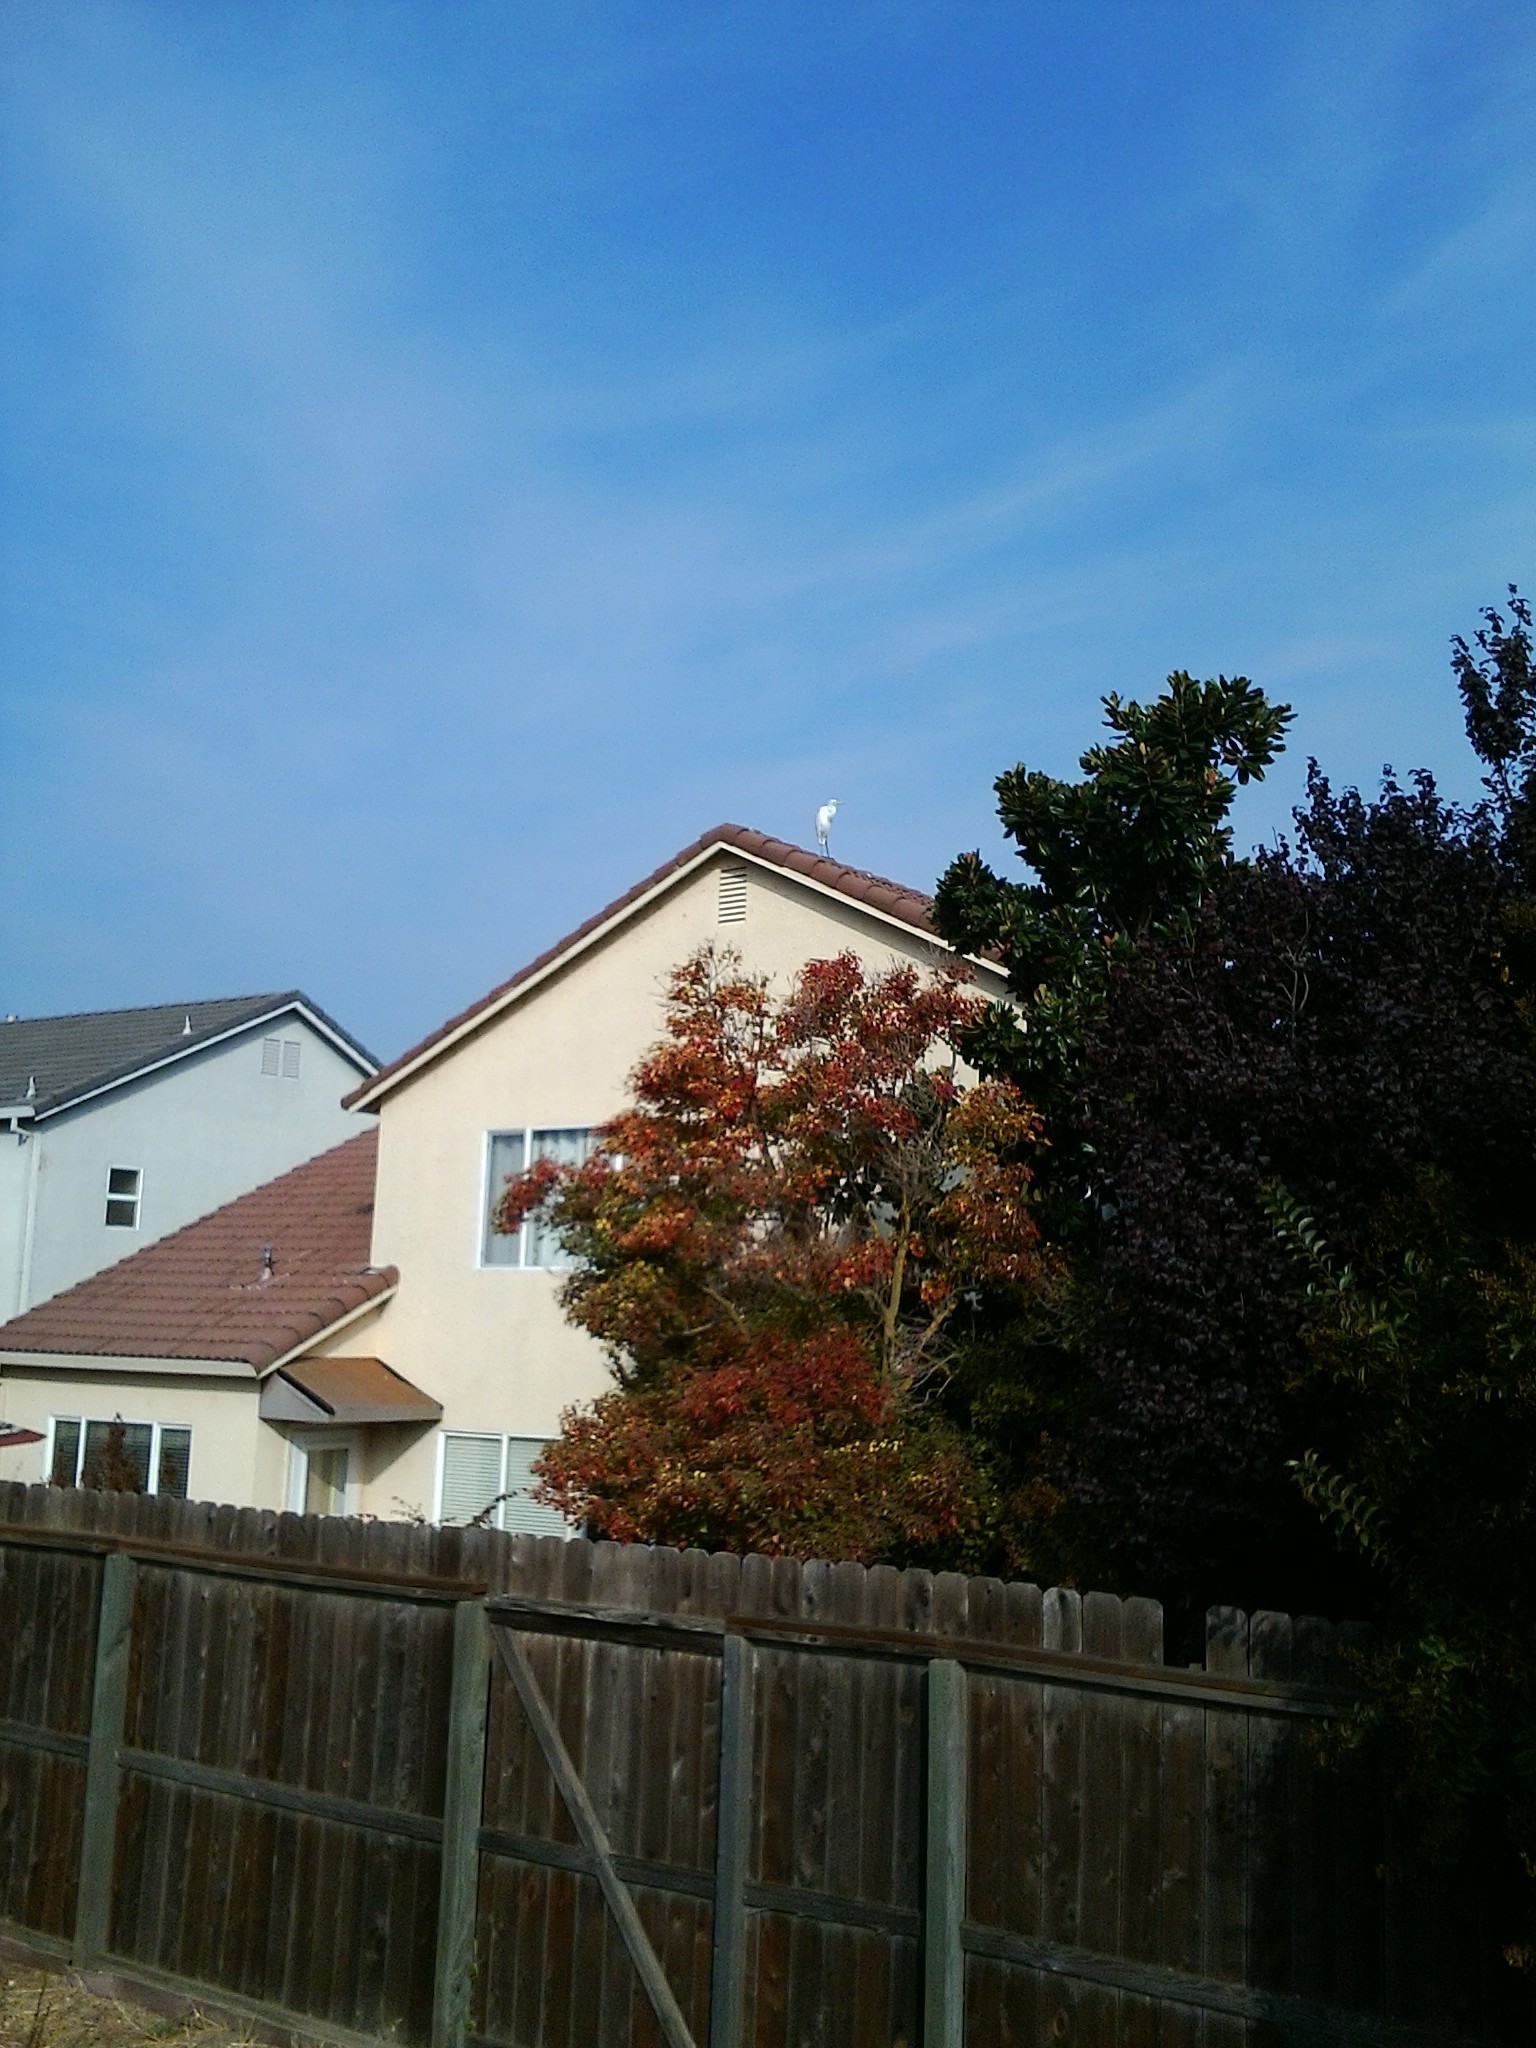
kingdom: Animalia
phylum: Chordata
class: Aves
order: Pelecaniformes
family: Ardeidae
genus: Ardea
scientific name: Ardea alba
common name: Great egret
